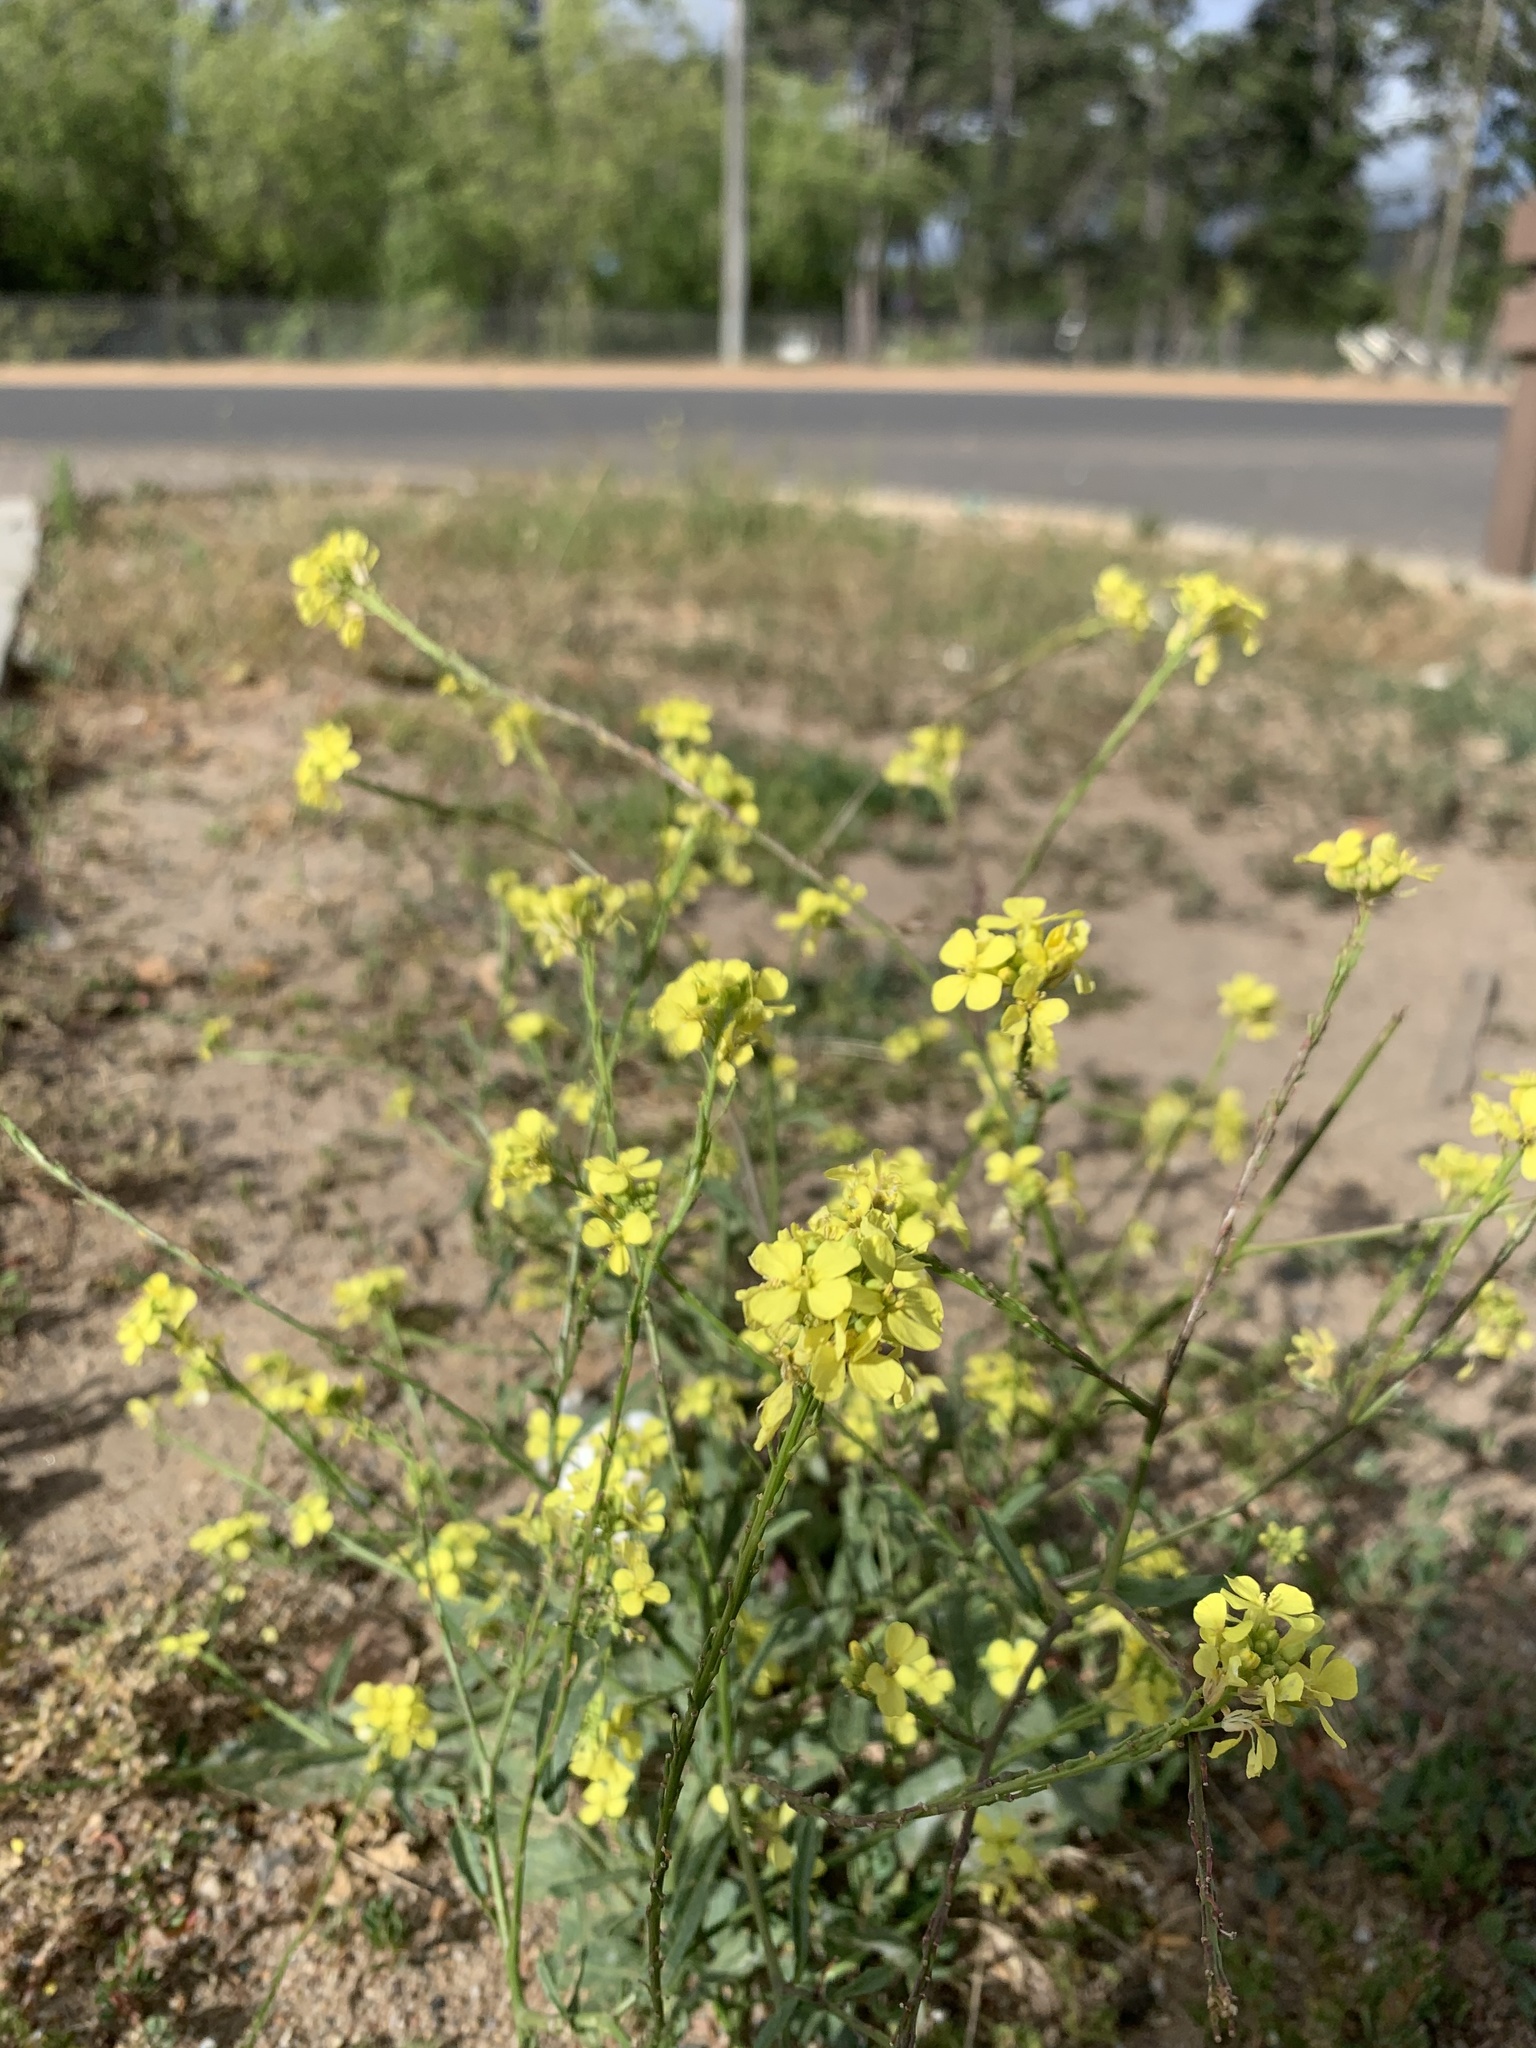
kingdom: Plantae
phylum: Tracheophyta
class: Magnoliopsida
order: Brassicales
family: Brassicaceae
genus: Rapistrum
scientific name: Rapistrum rugosum
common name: Annual bastardcabbage
